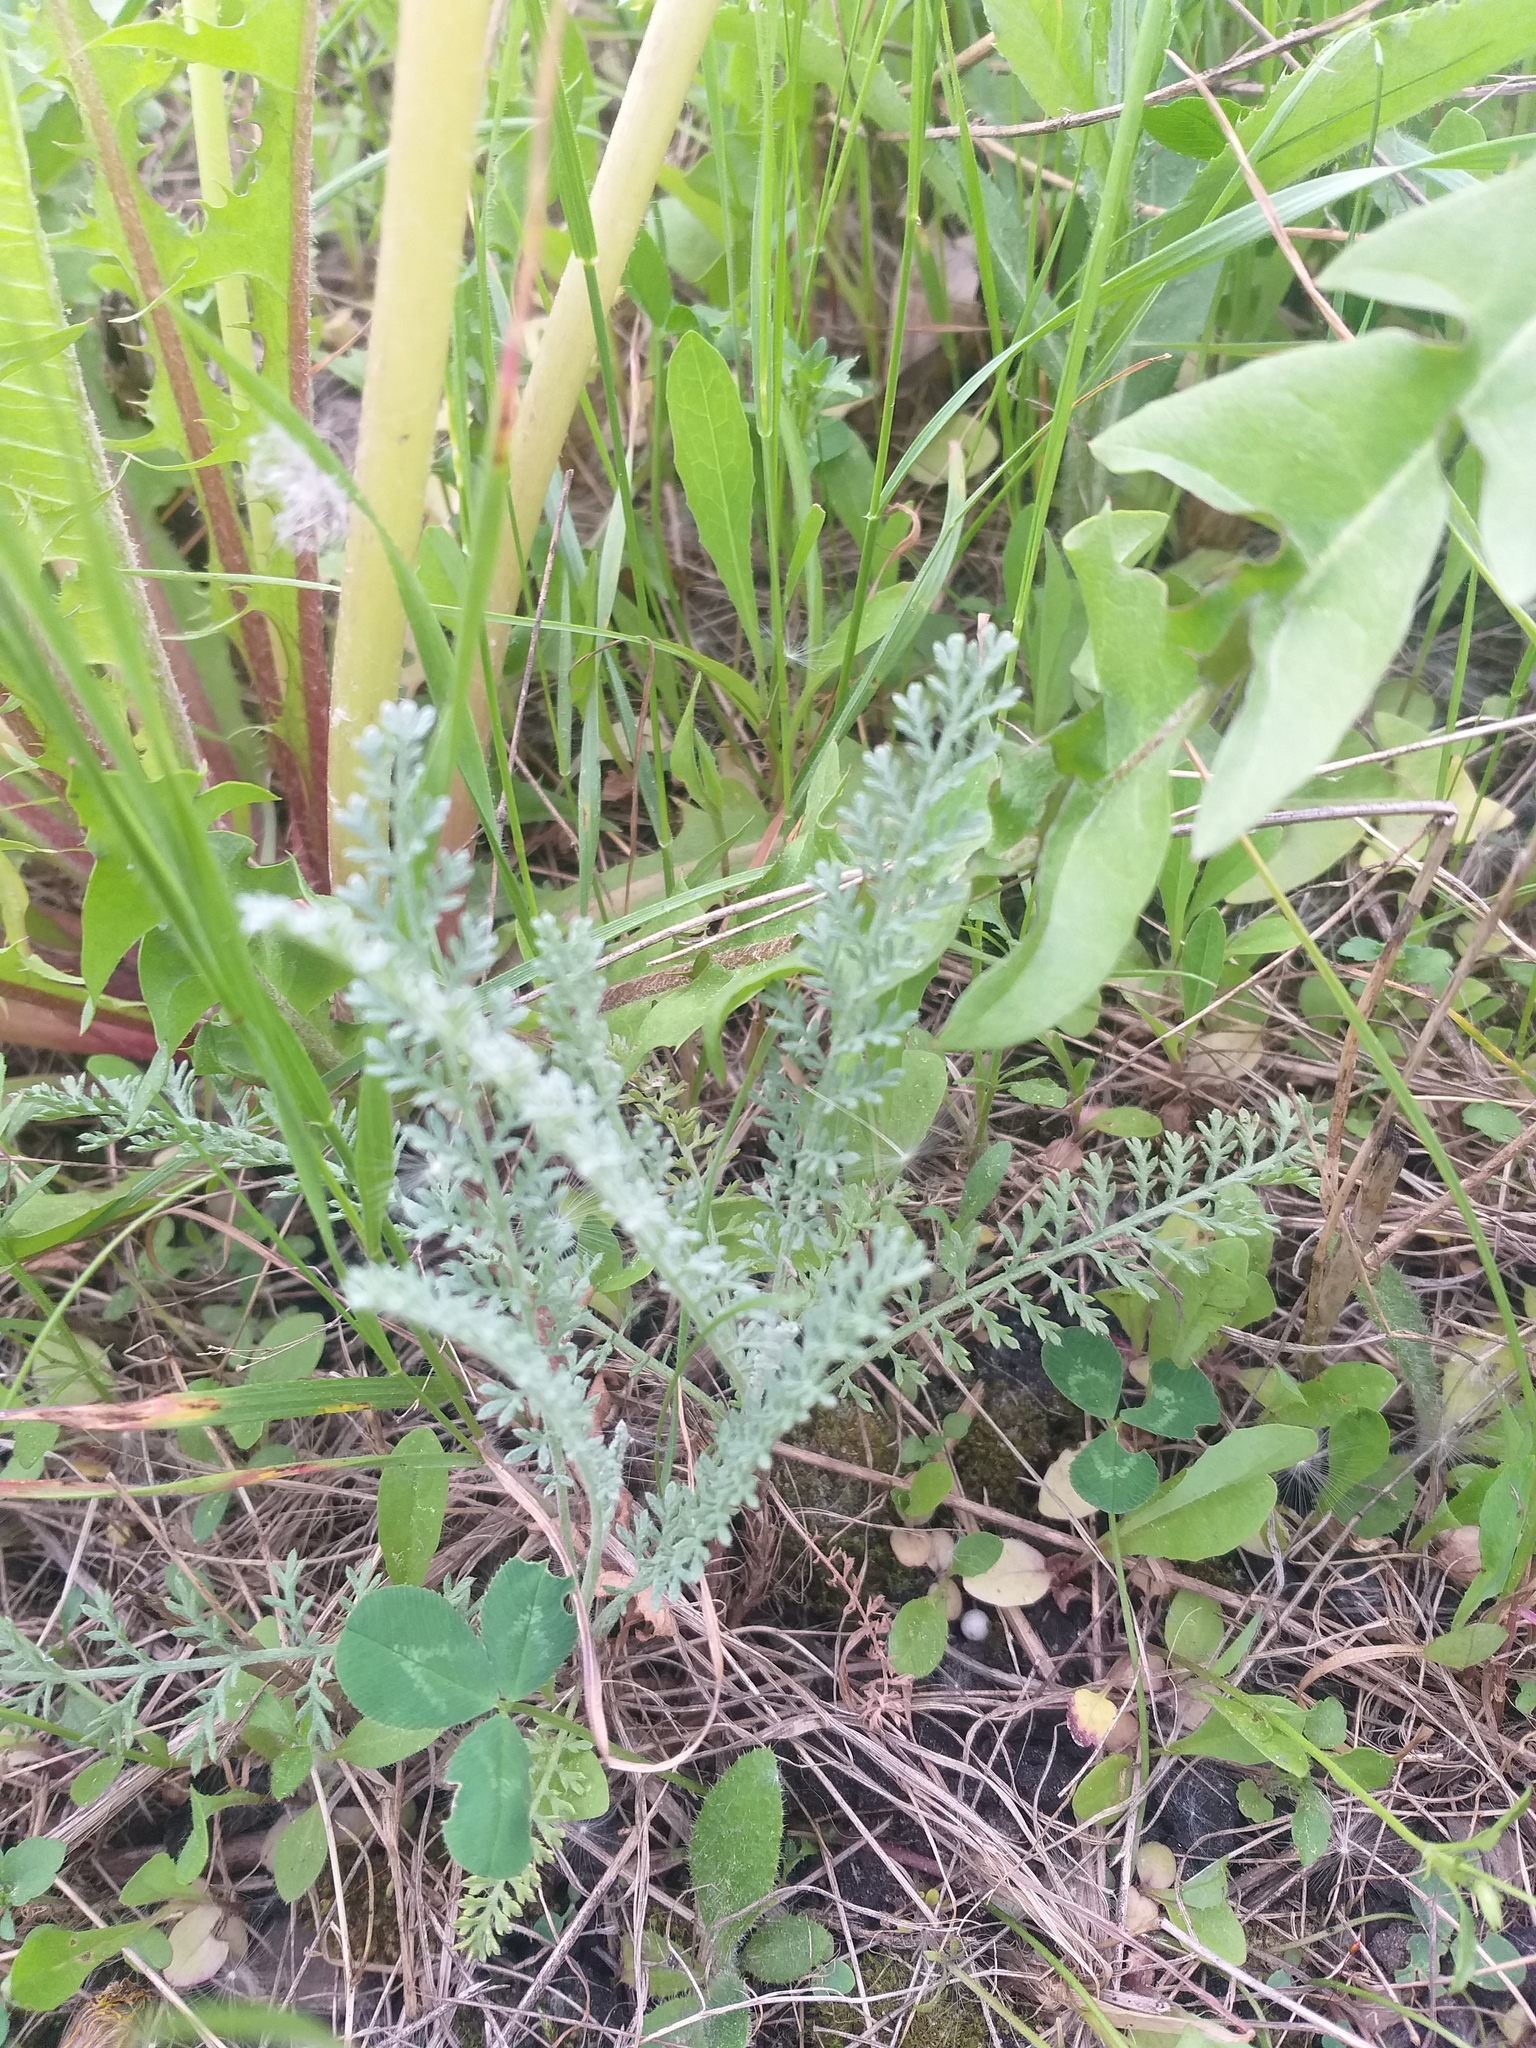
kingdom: Plantae
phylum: Tracheophyta
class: Magnoliopsida
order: Asterales
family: Asteraceae
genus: Tanacetum
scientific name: Tanacetum achilleifolium
